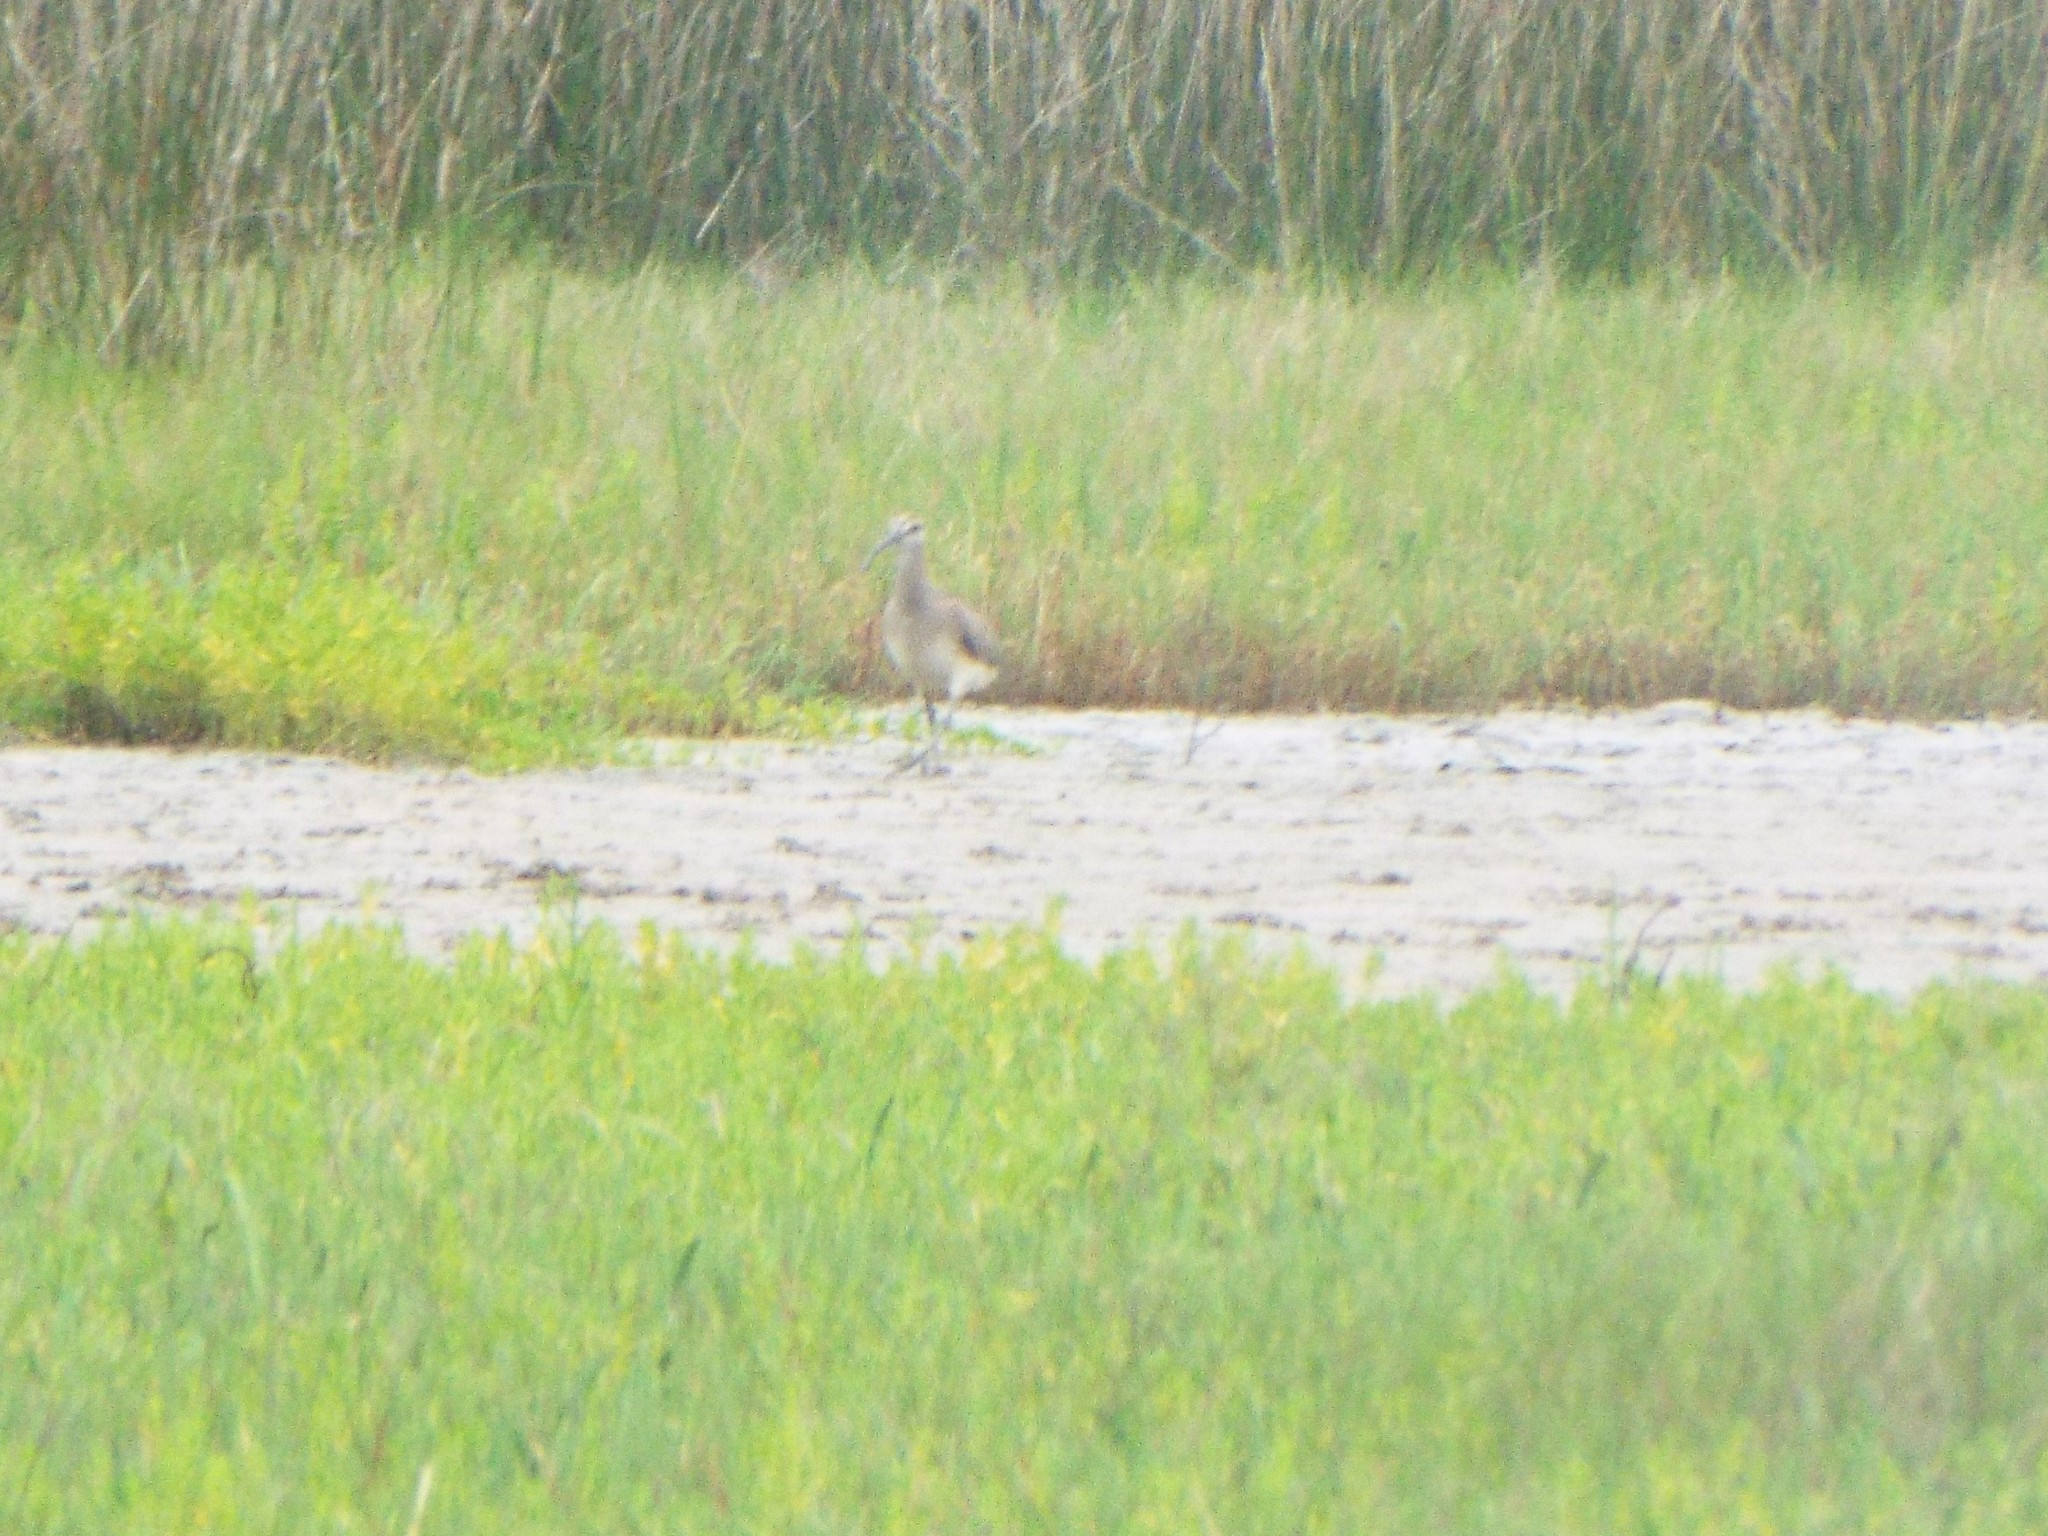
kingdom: Animalia
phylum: Chordata
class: Aves
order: Charadriiformes
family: Scolopacidae
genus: Numenius
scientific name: Numenius phaeopus
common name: Whimbrel
